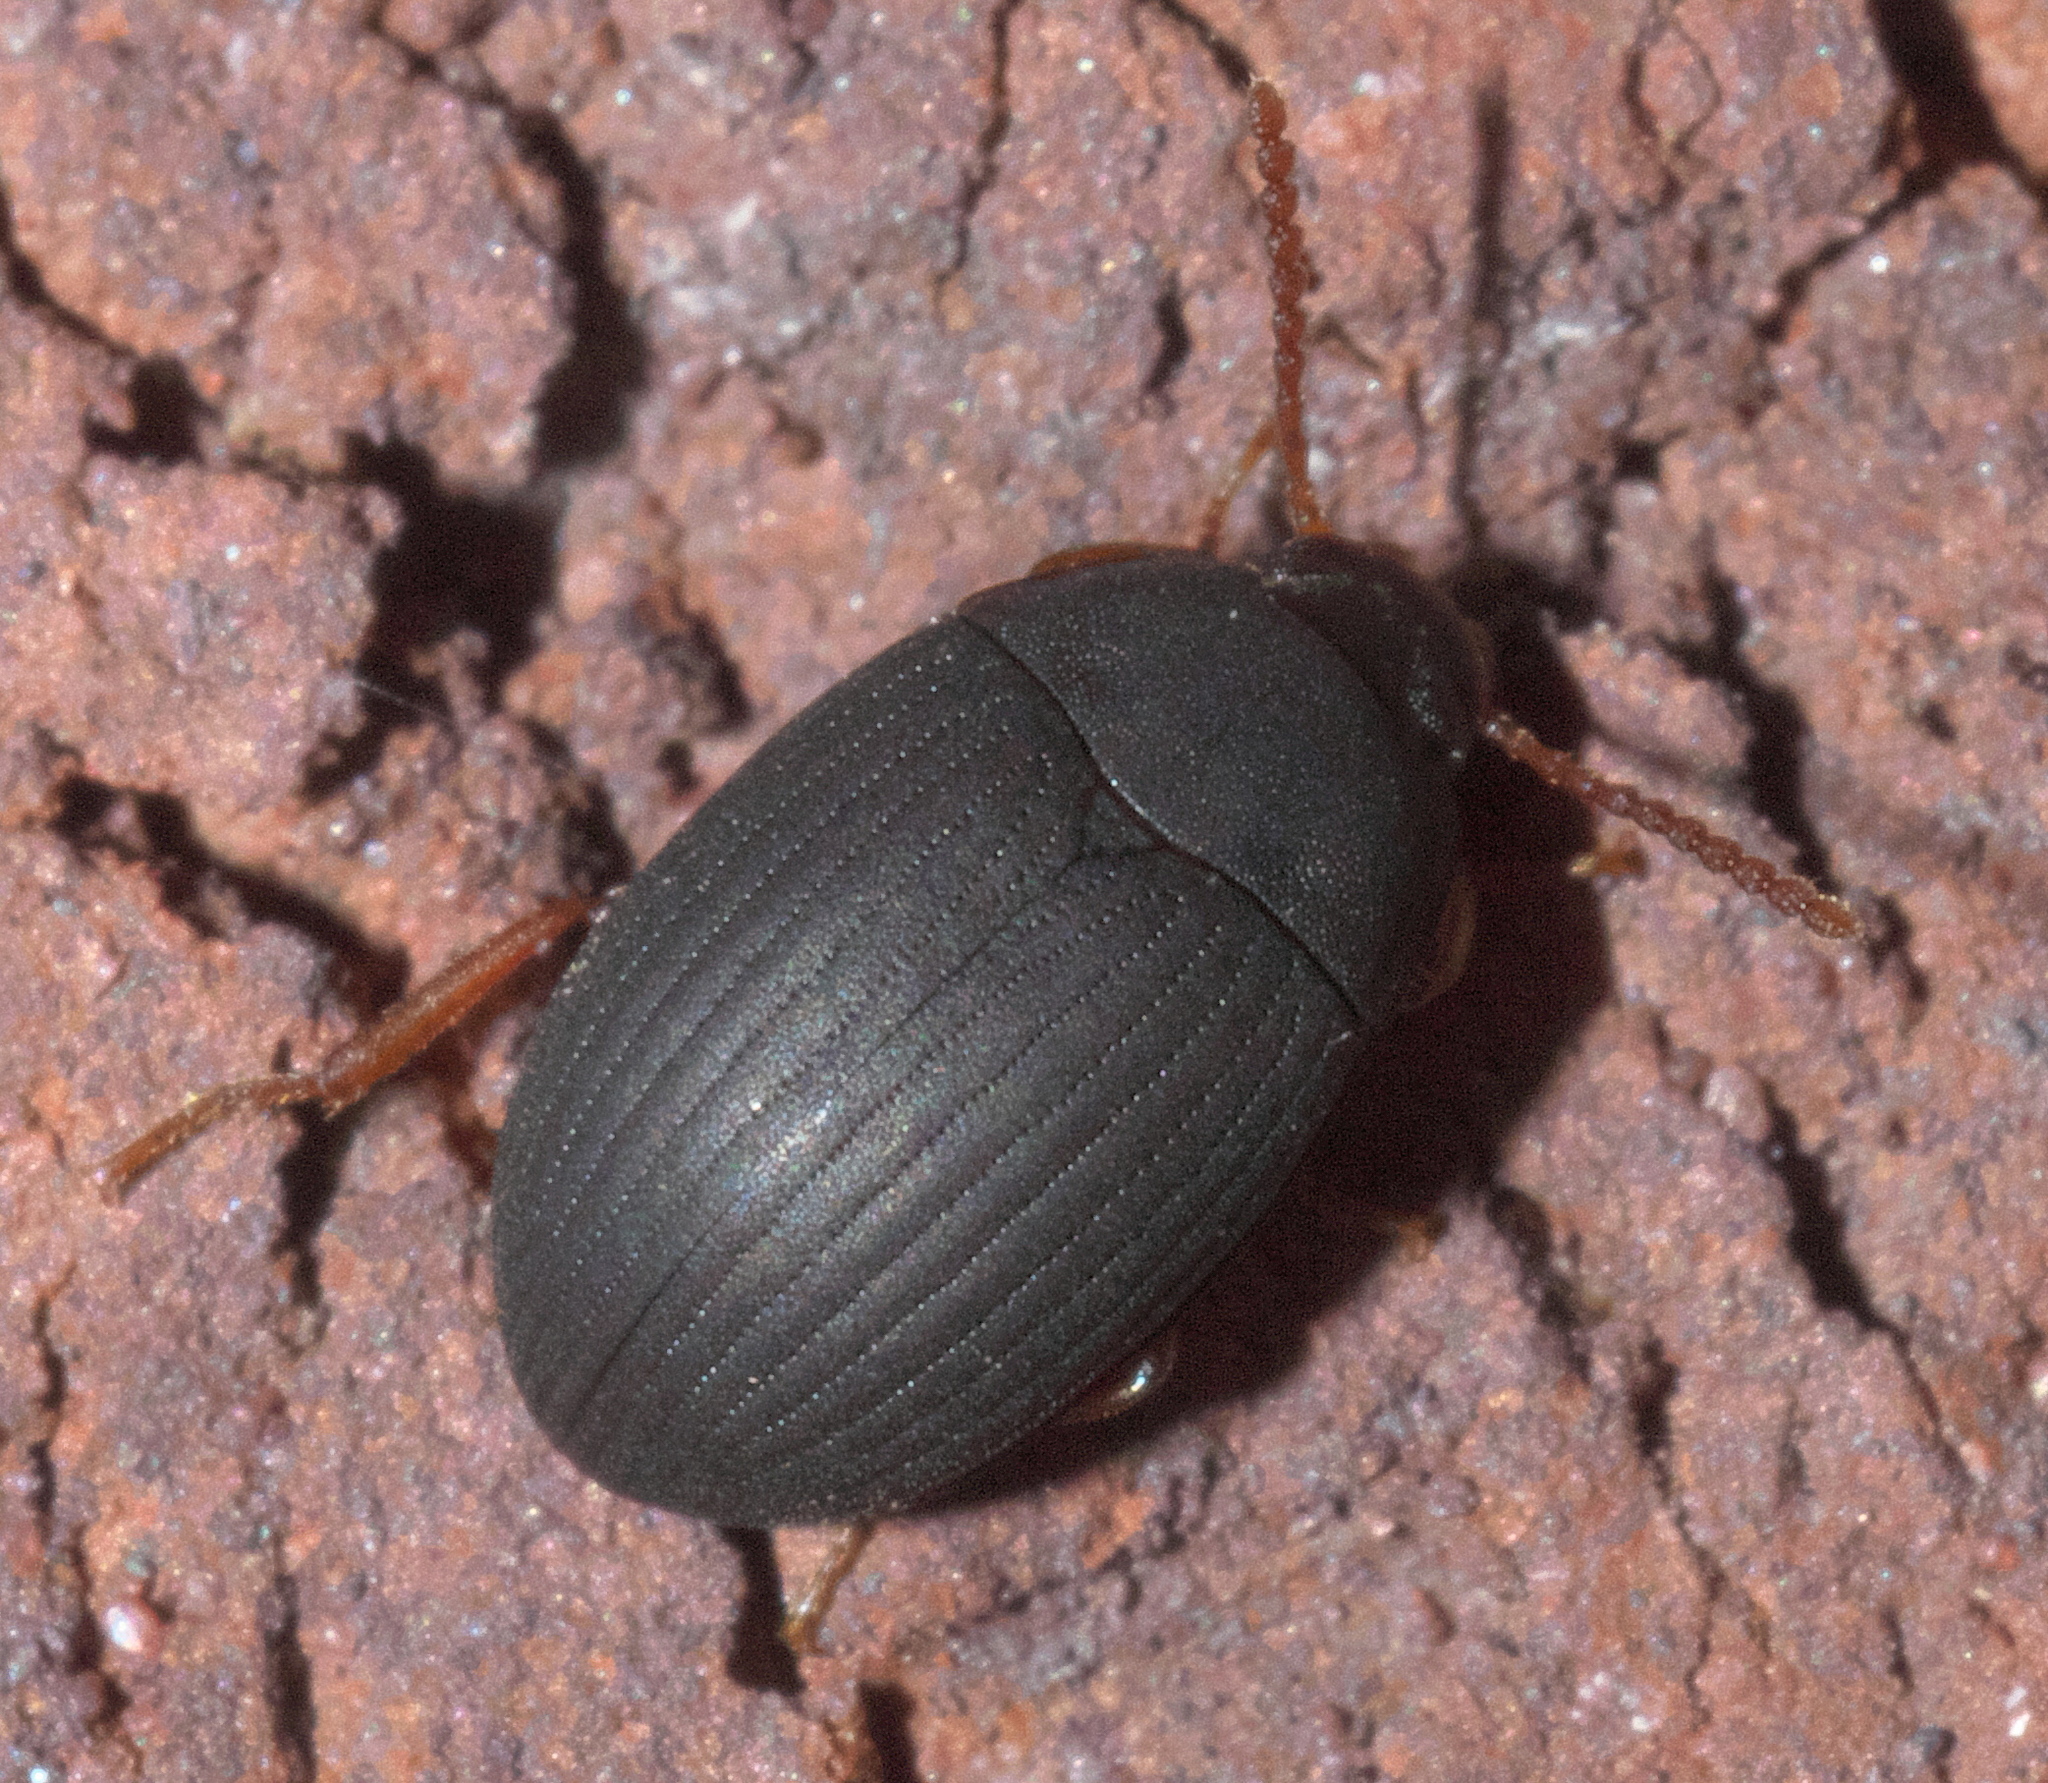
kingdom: Animalia
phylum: Arthropoda
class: Insecta
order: Coleoptera
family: Tenebrionidae
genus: Platydema
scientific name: Platydema ruficornis
